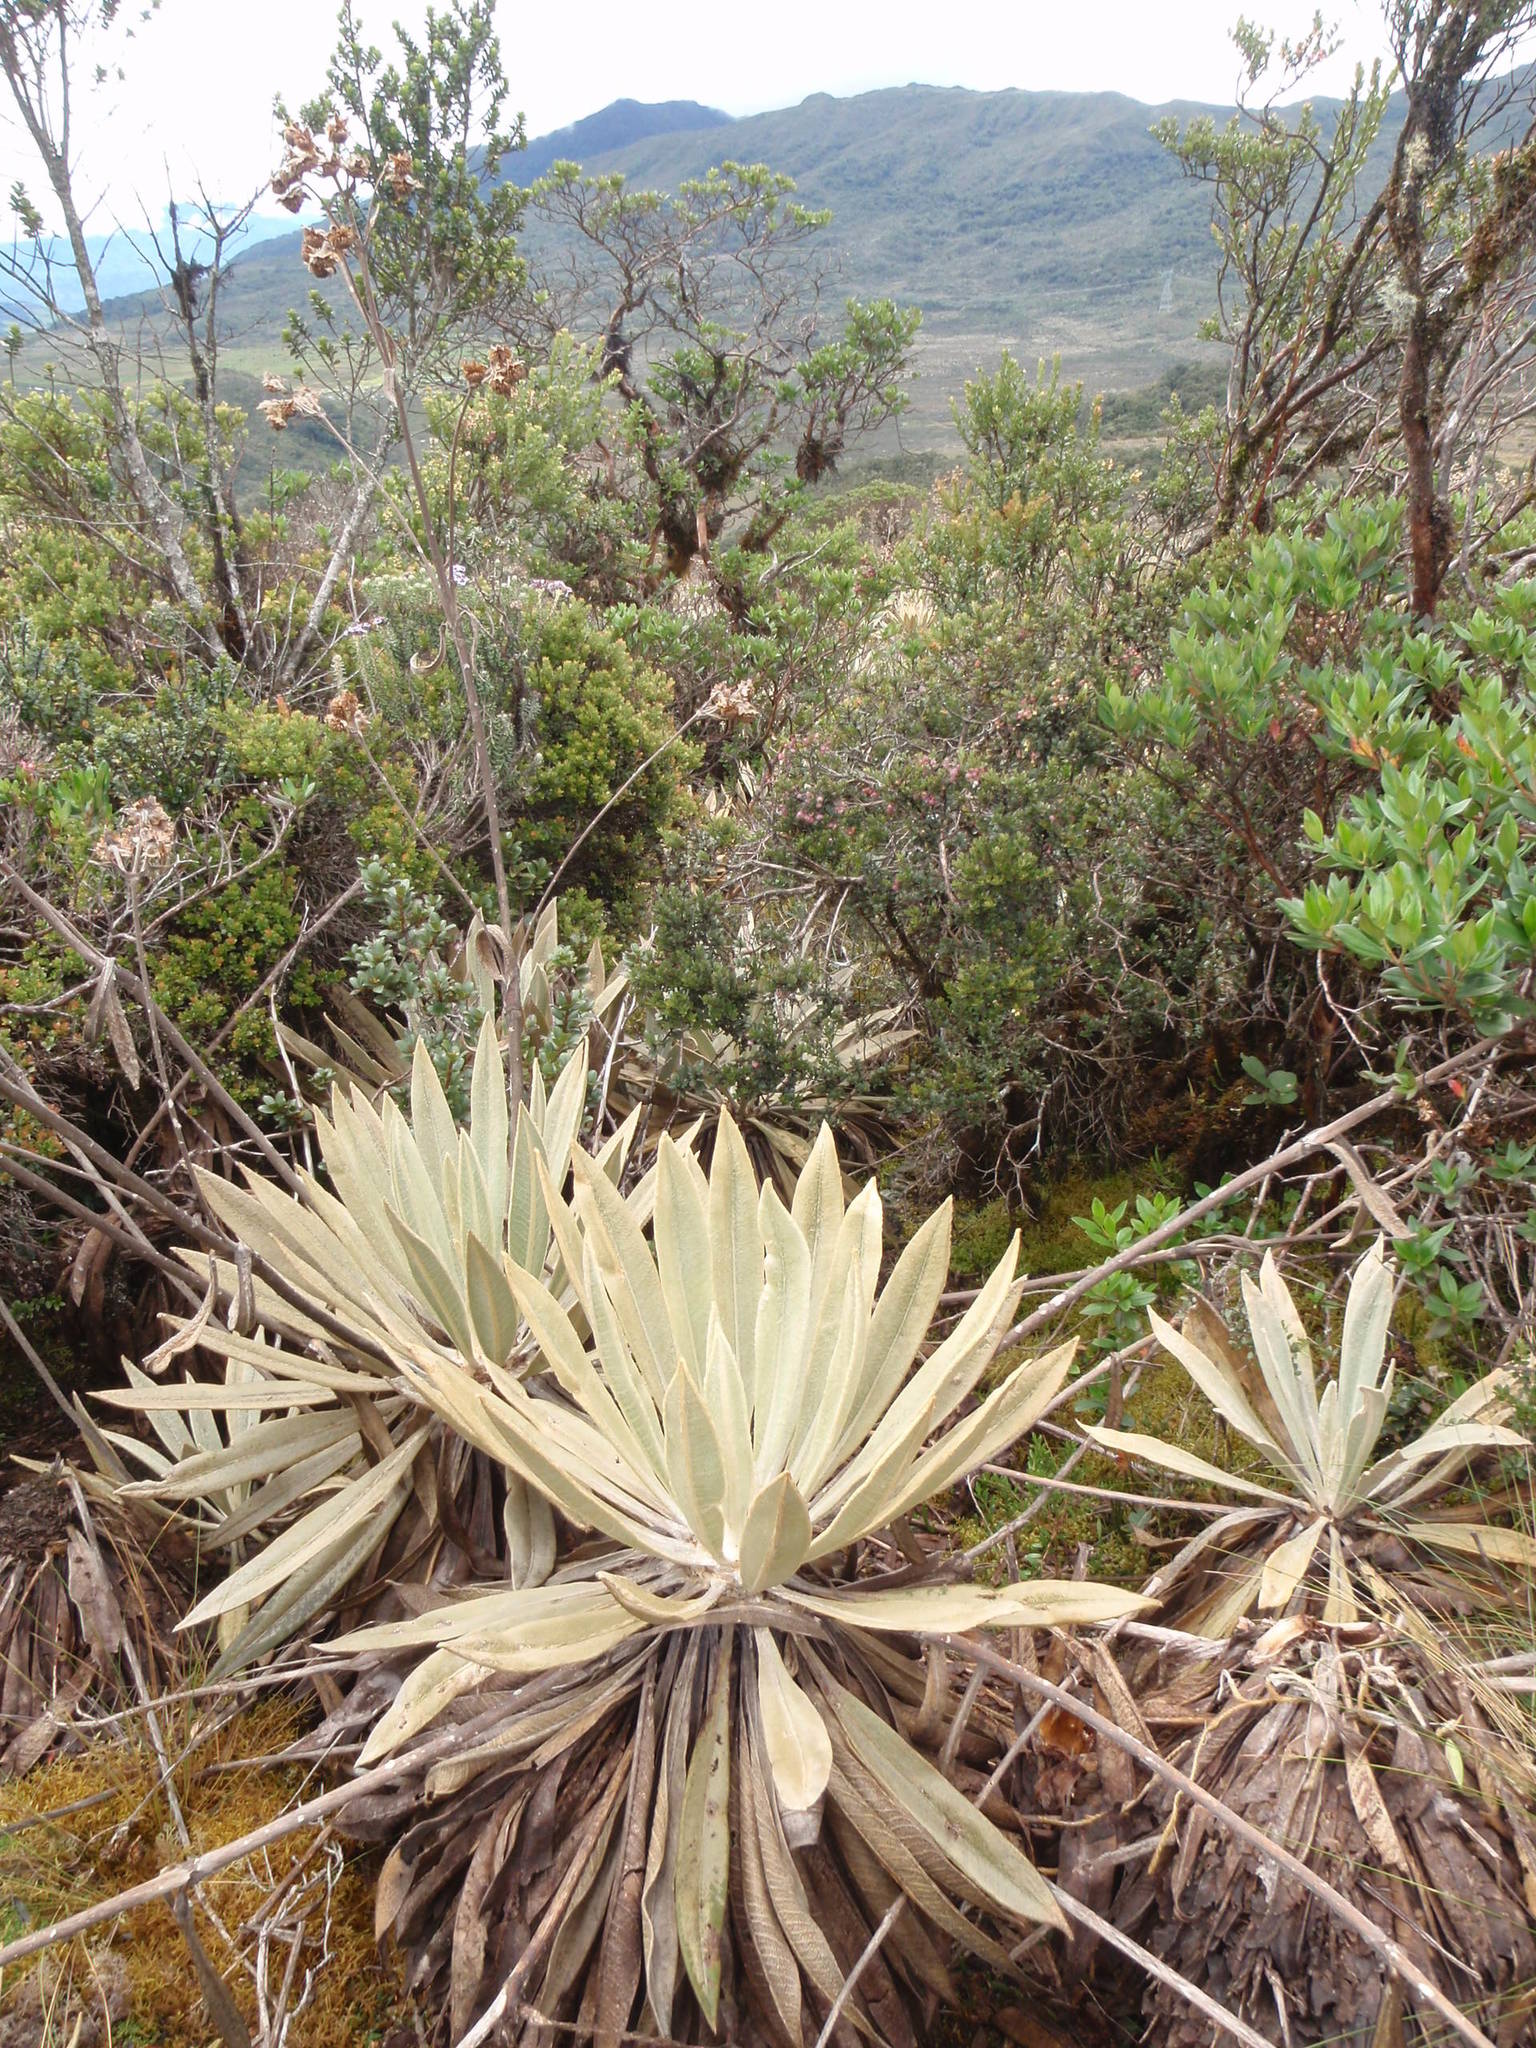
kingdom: Plantae
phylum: Tracheophyta
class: Magnoliopsida
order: Asterales
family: Asteraceae
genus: Espeletia
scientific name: Espeletia grandiflora
